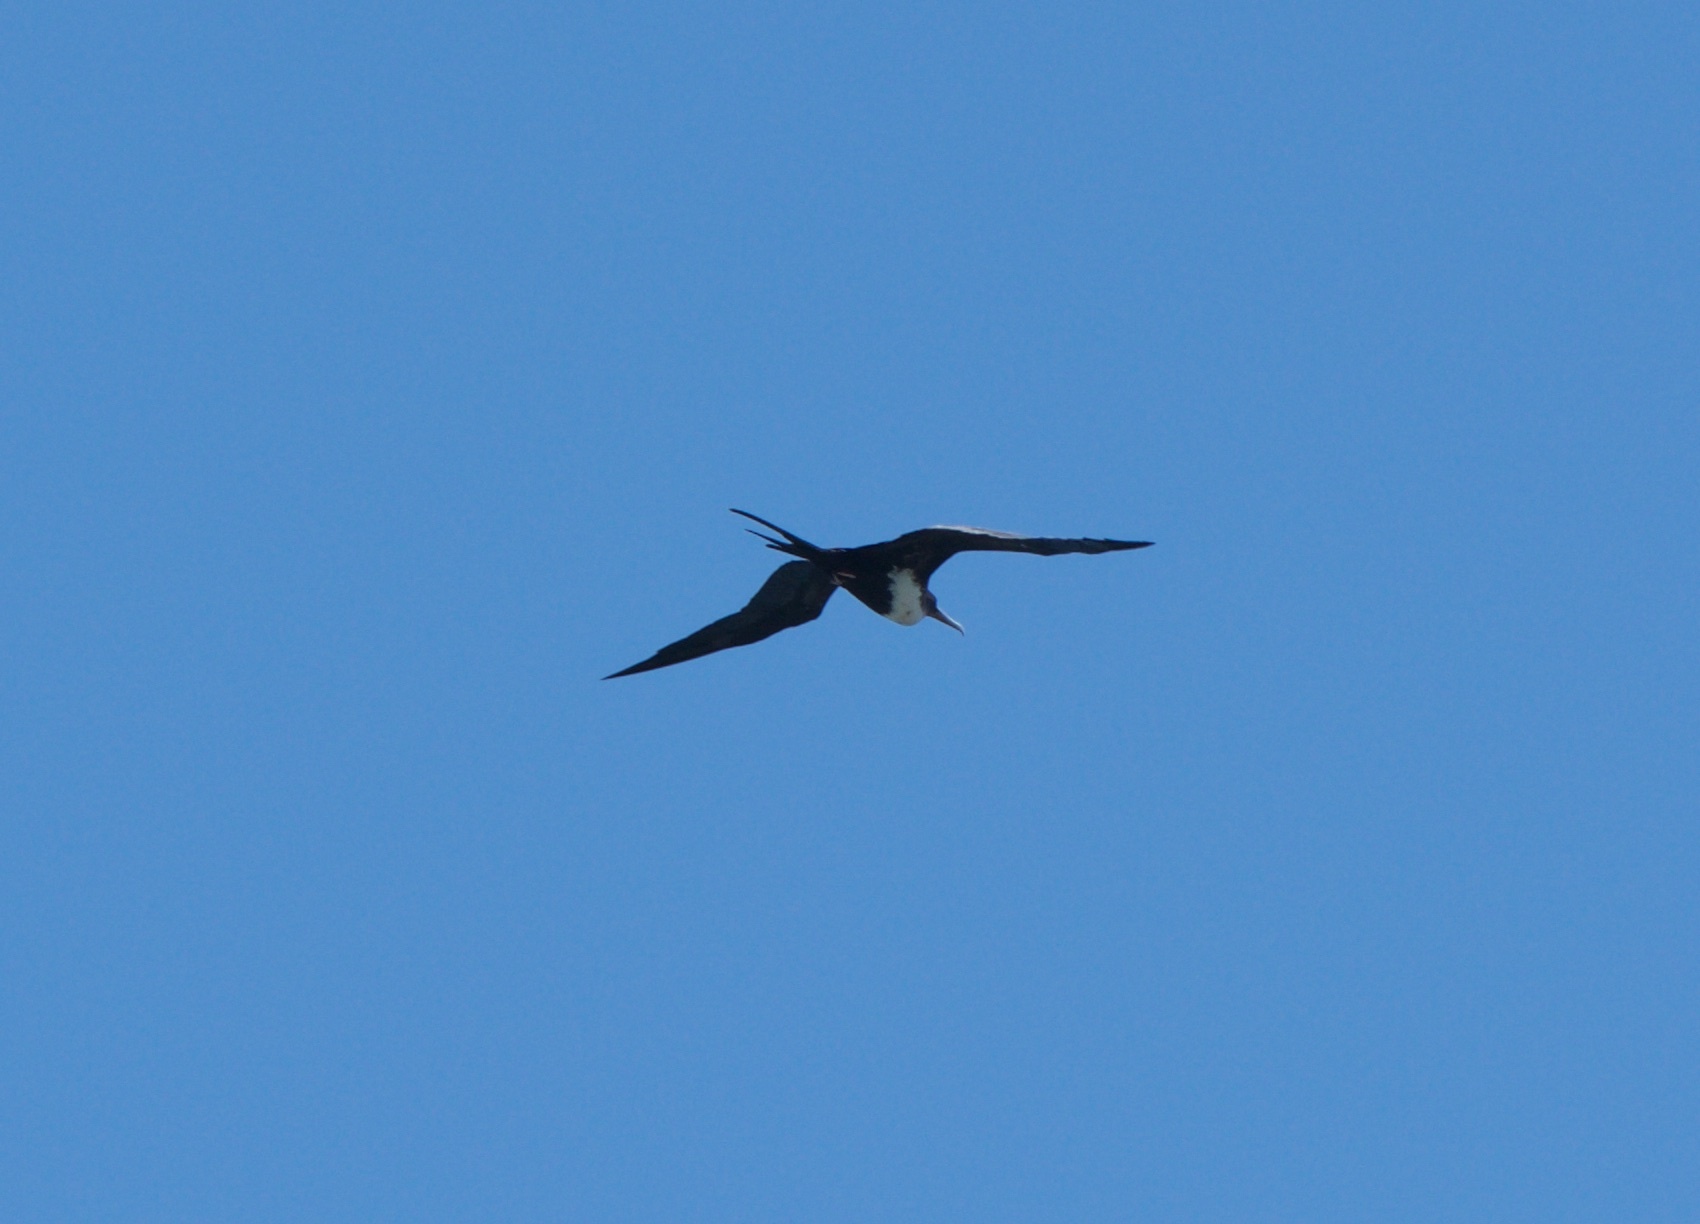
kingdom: Animalia
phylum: Chordata
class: Aves
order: Suliformes
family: Fregatidae
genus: Fregata
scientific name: Fregata minor
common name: Great frigatebird
